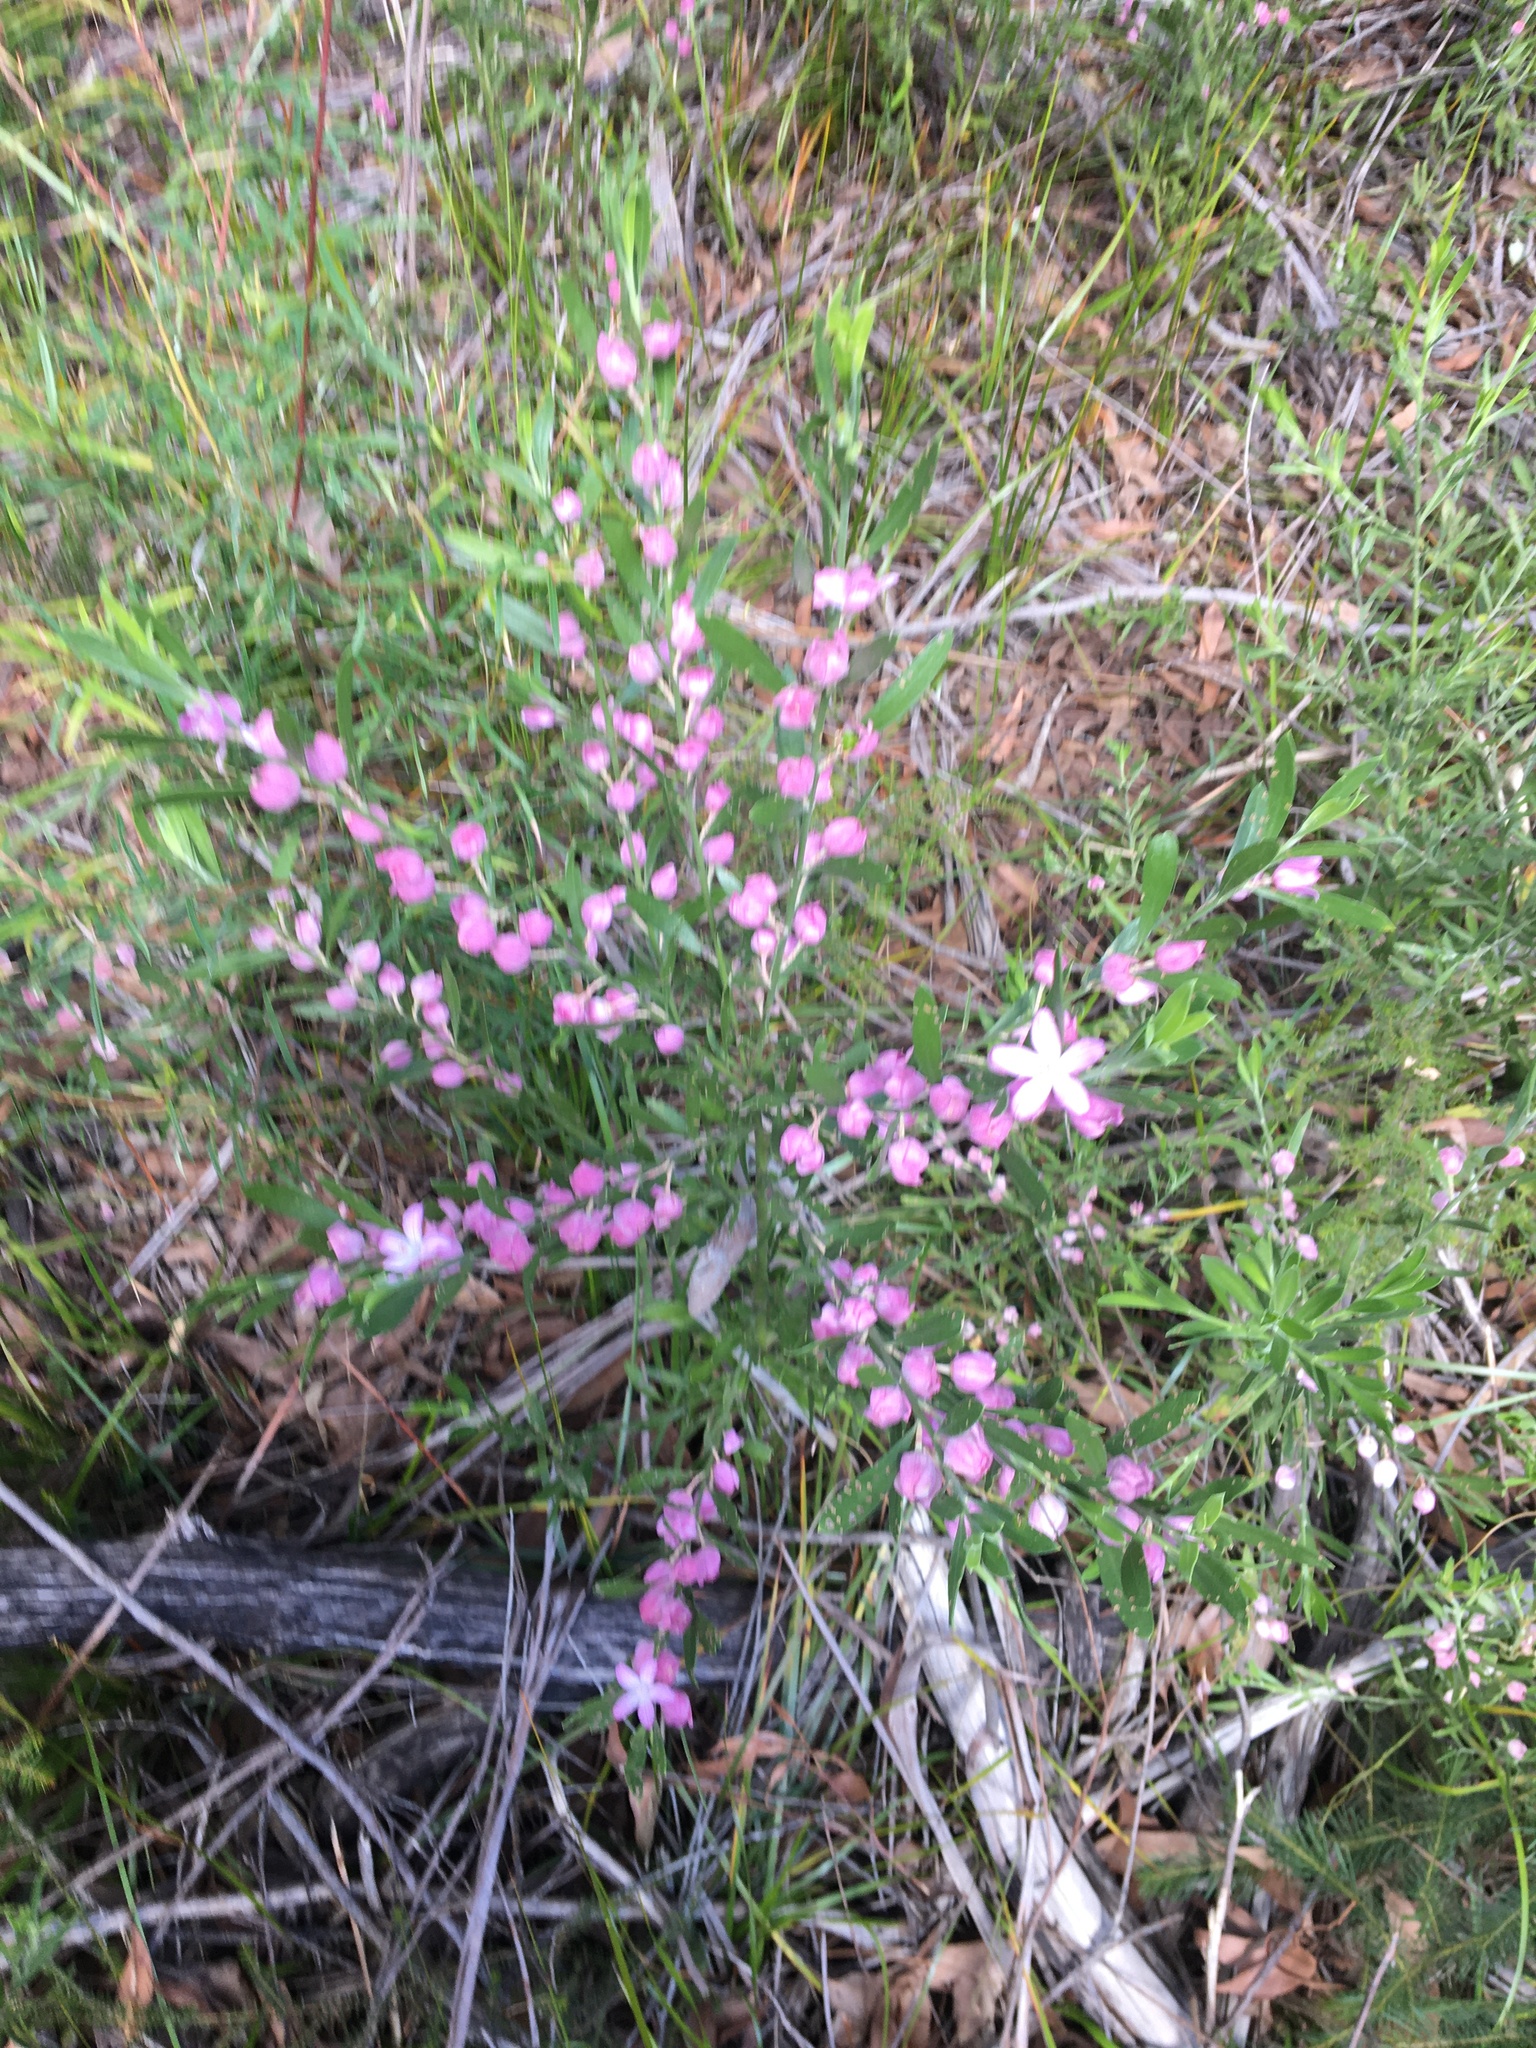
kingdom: Plantae
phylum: Tracheophyta
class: Magnoliopsida
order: Sapindales
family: Rutaceae
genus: Eriostemon
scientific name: Eriostemon australasius
